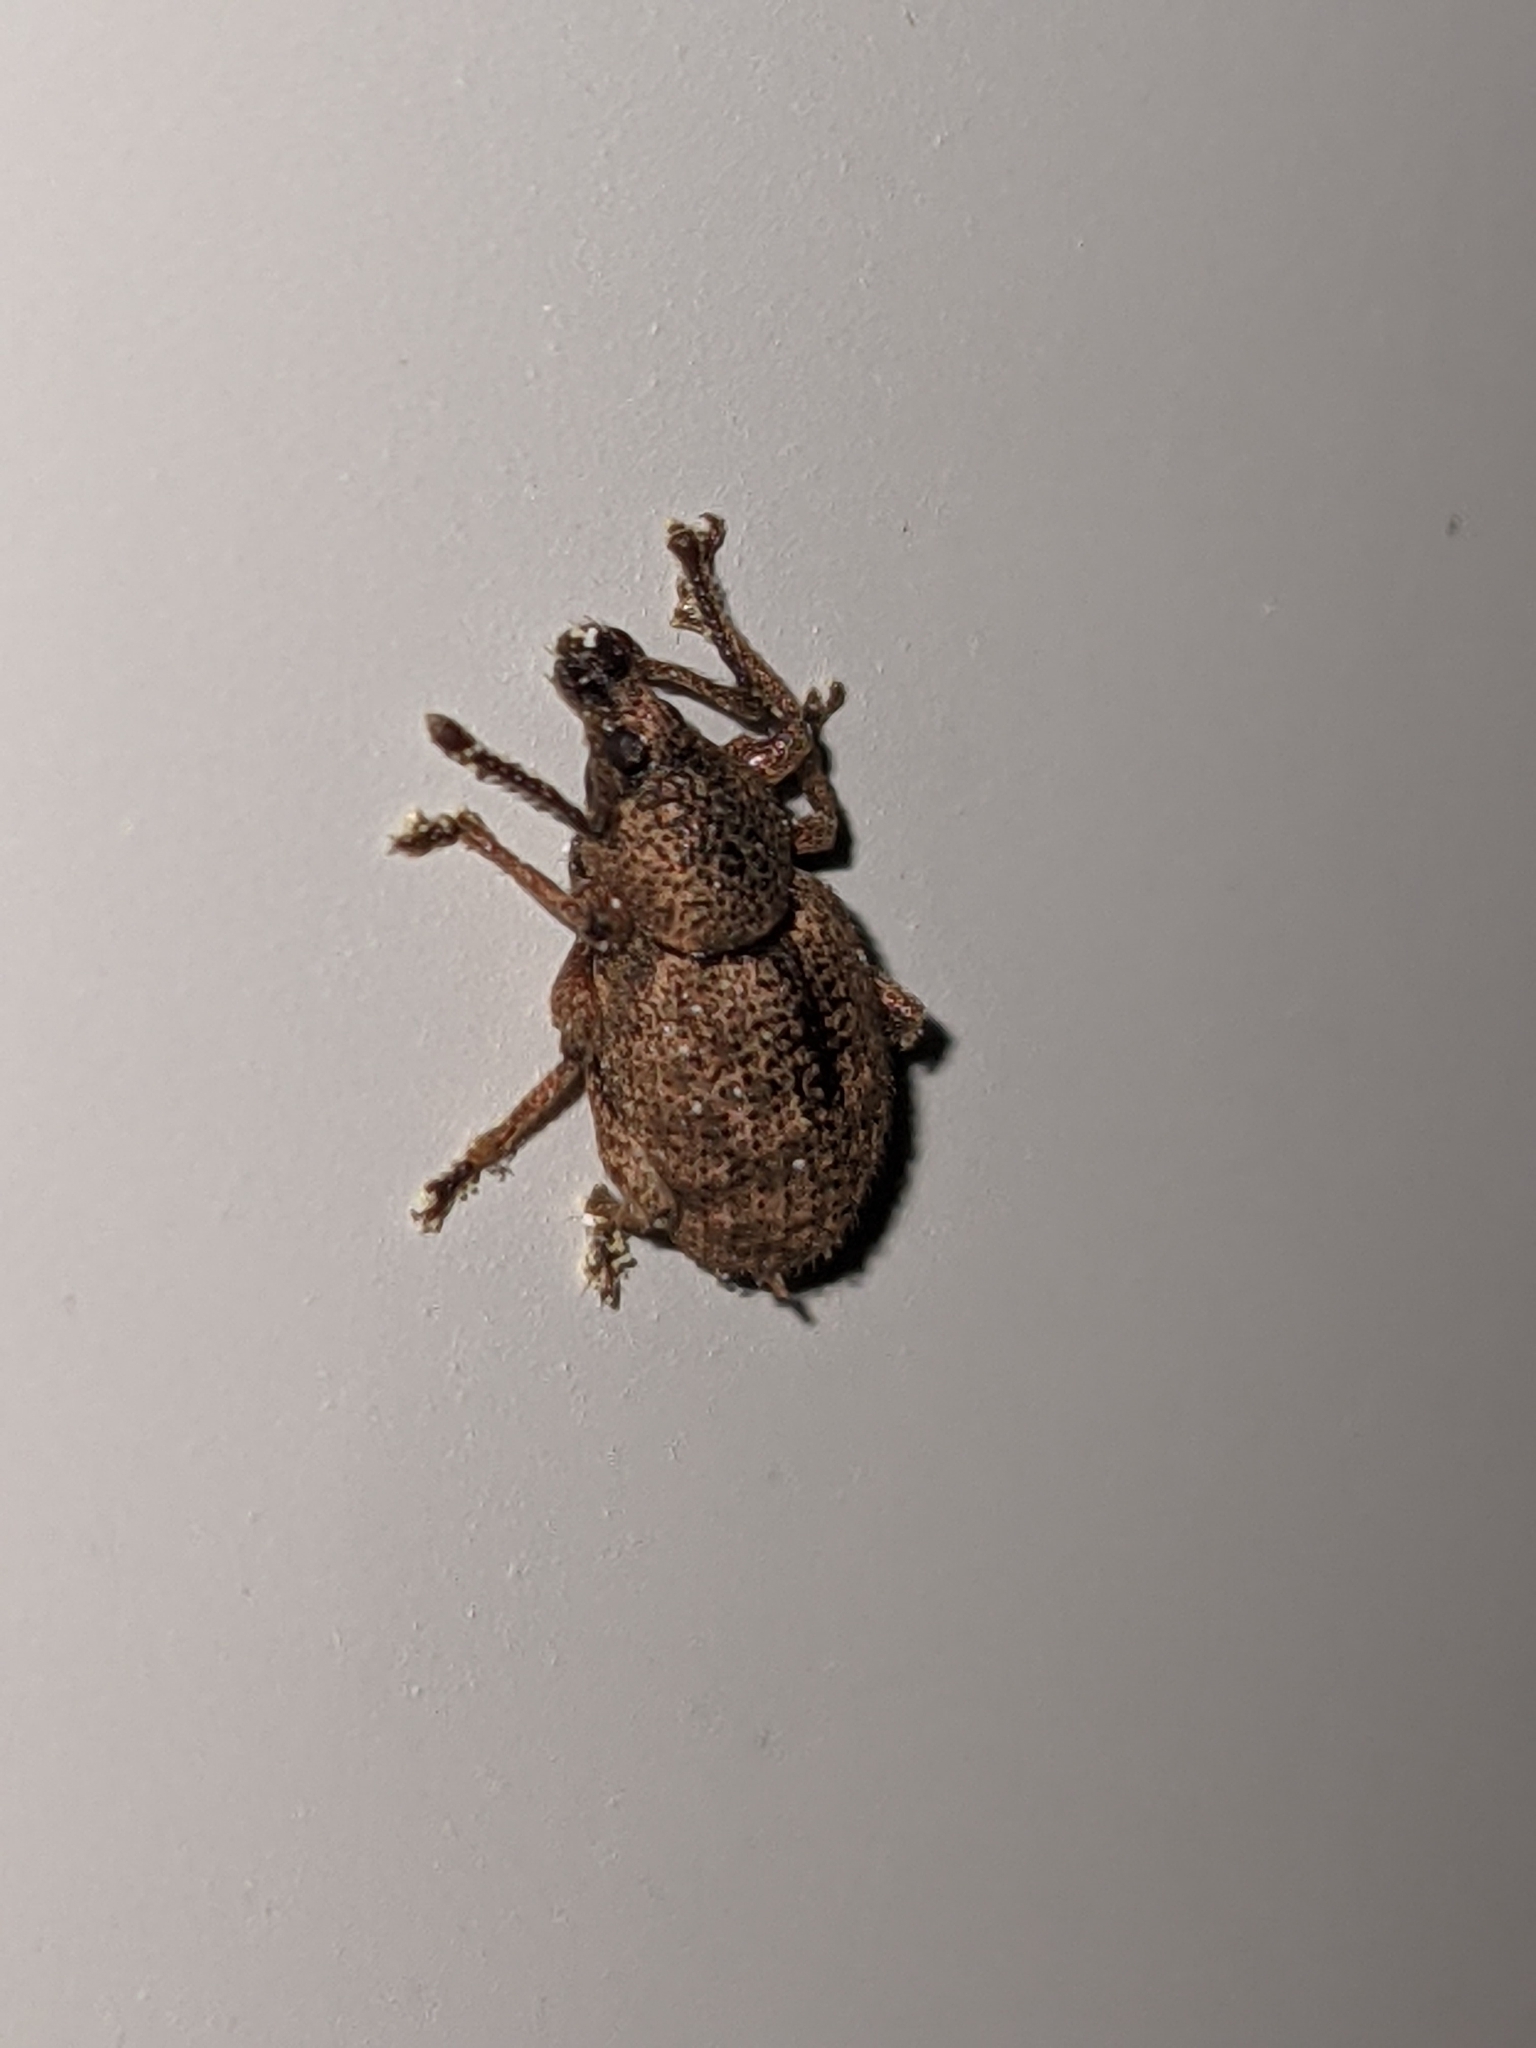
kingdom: Animalia
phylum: Arthropoda
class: Insecta
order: Coleoptera
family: Curculionidae
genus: Otiorhynchus
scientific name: Otiorhynchus singularis
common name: Clay-coloured weevil
